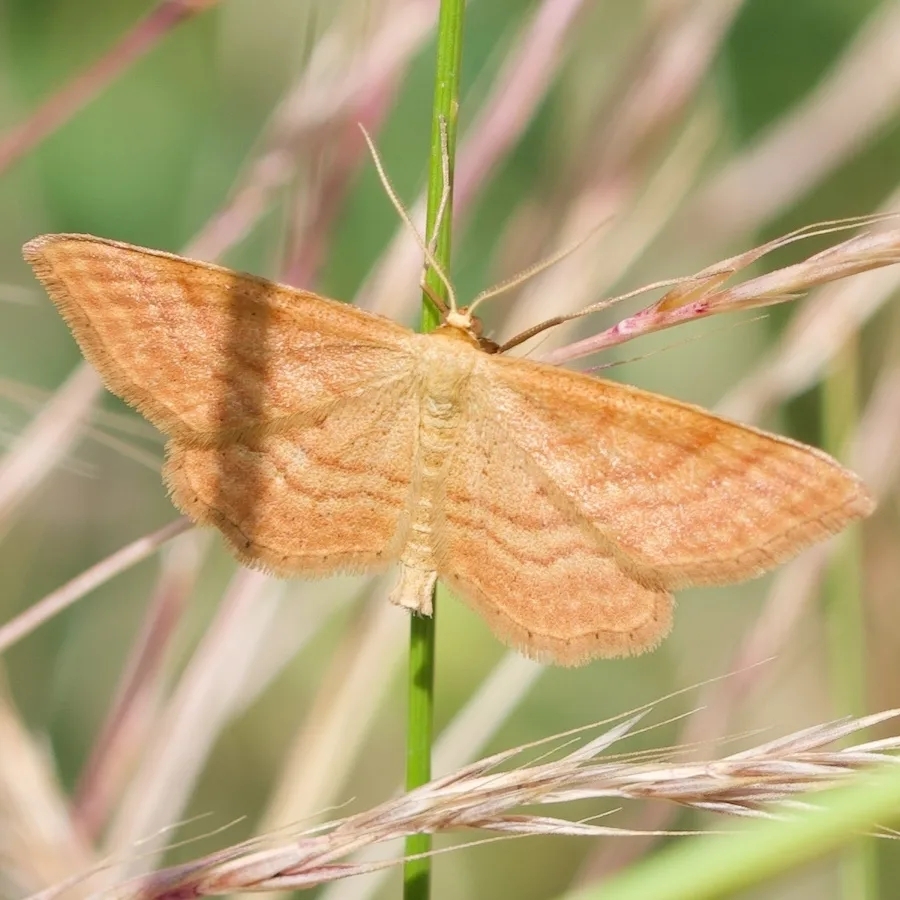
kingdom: Animalia
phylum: Arthropoda
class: Insecta
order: Lepidoptera
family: Geometridae
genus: Idaea
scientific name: Idaea ochrata
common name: Bright wave
